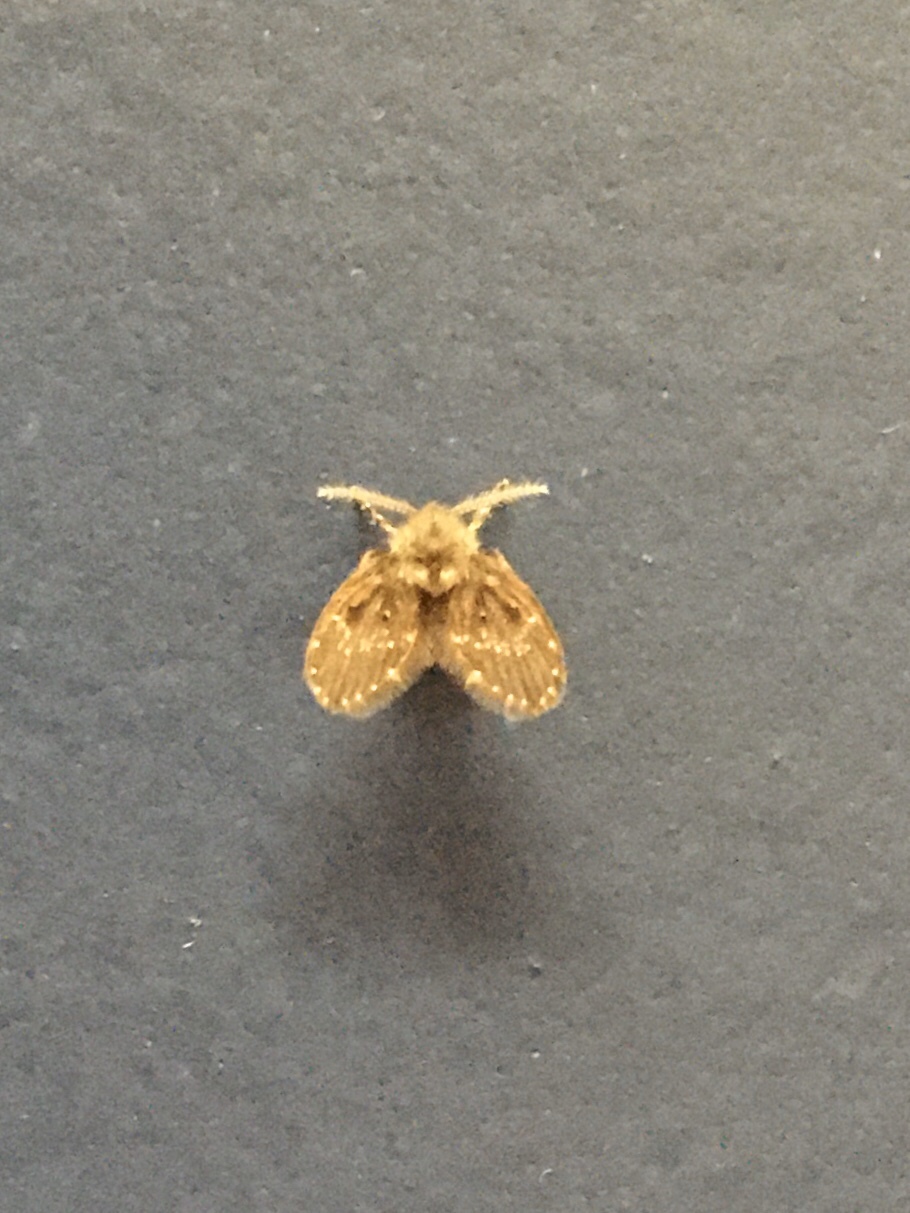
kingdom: Animalia
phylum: Arthropoda
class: Insecta
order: Diptera
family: Psychodidae
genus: Clogmia
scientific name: Clogmia albipunctatus
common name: White-spotted moth fly
